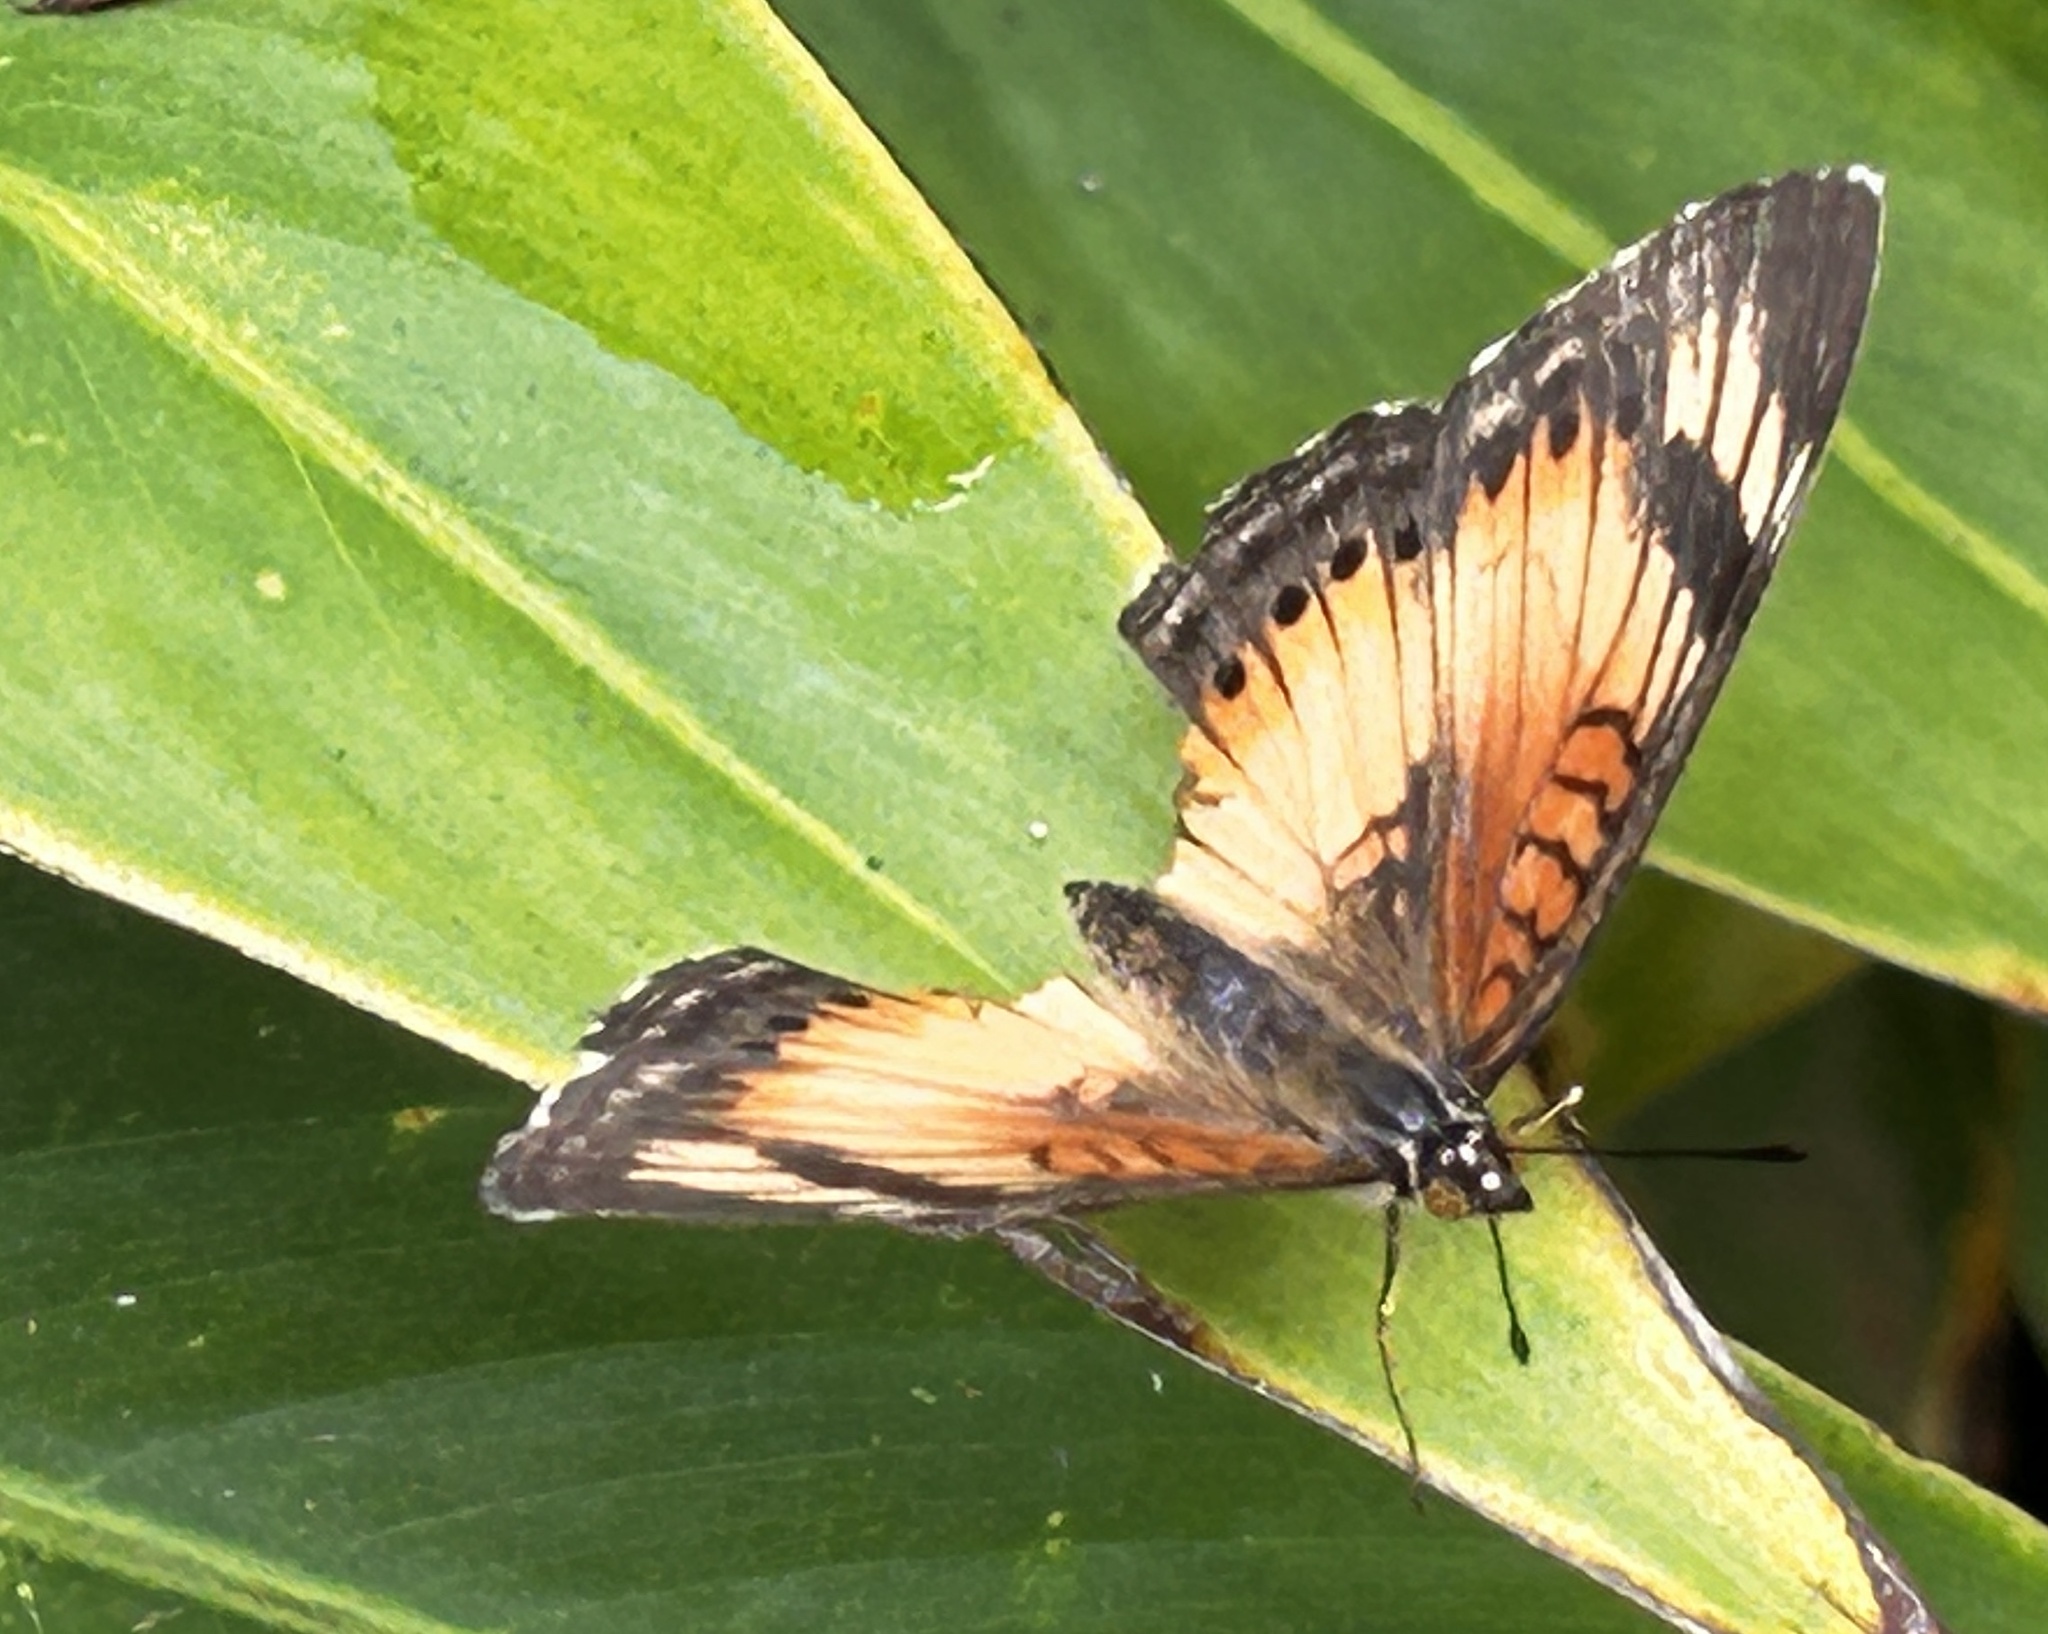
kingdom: Animalia
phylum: Arthropoda
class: Insecta
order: Lepidoptera
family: Nymphalidae
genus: Junonia
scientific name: Junonia sophia
